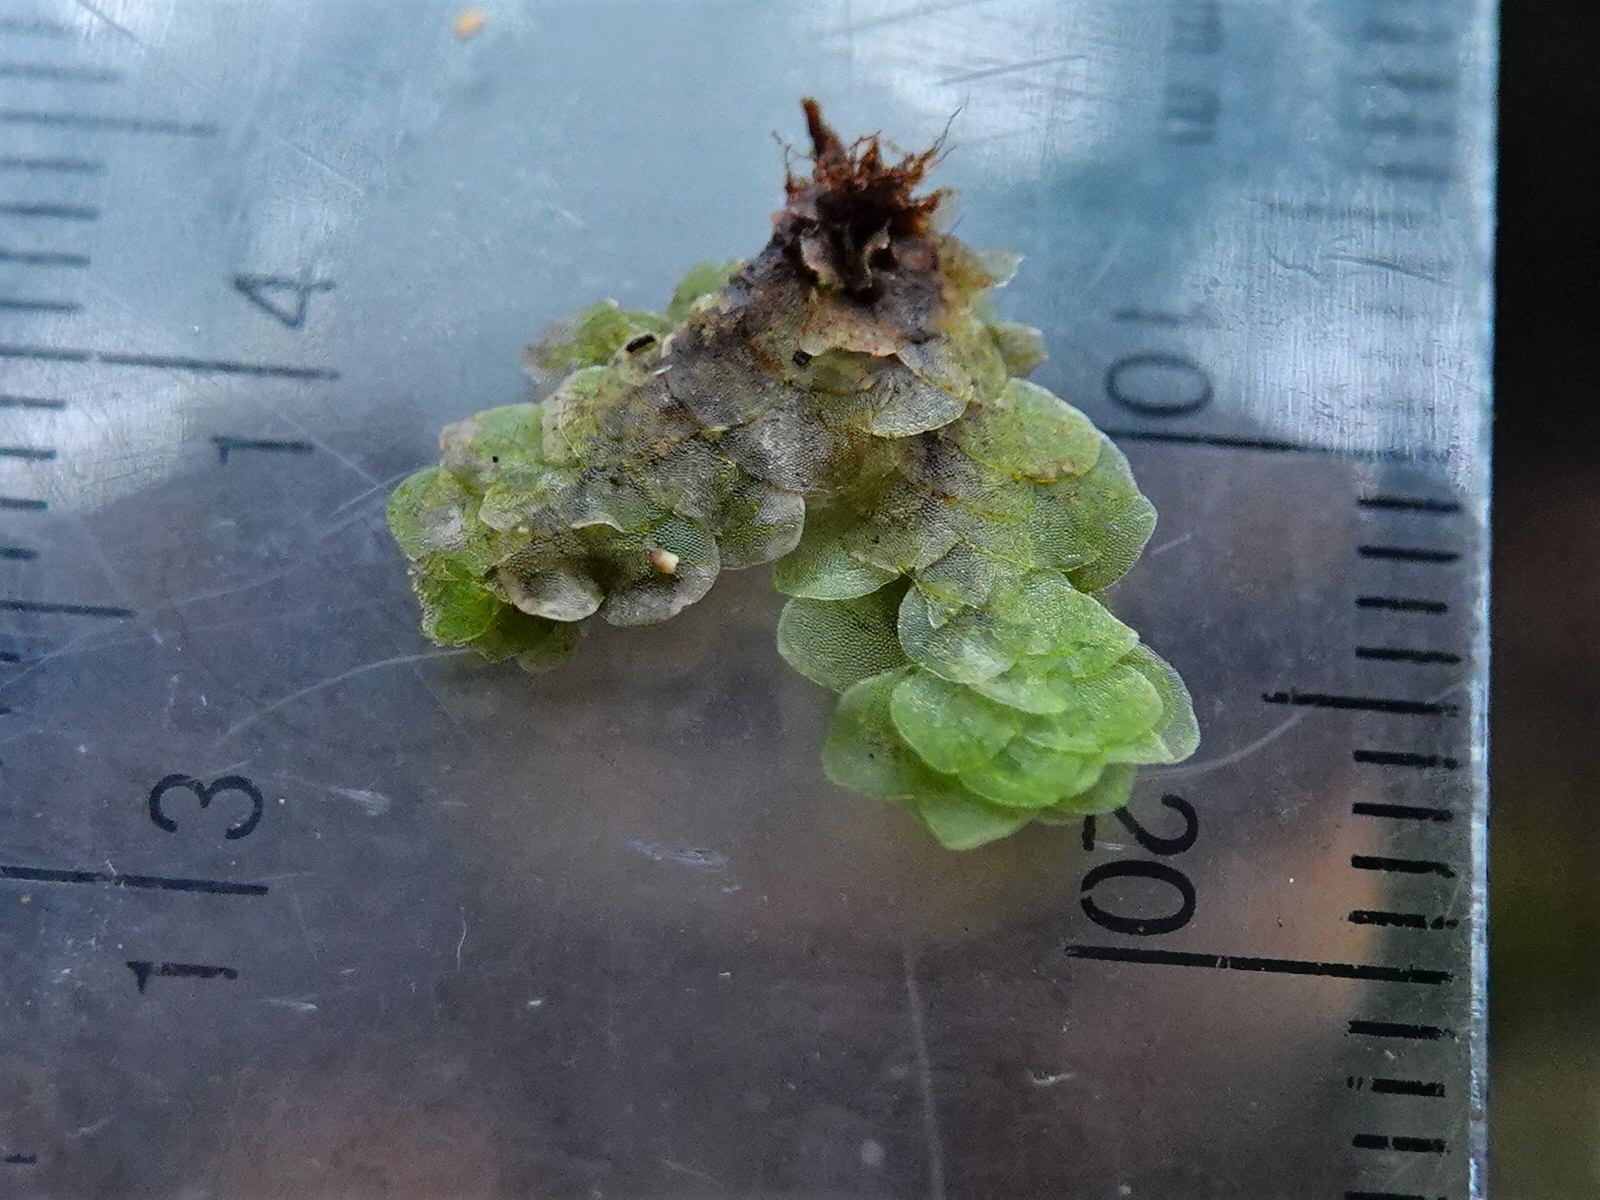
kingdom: Plantae
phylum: Bryophyta
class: Bryopsida
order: Hookeriales
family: Daltoniaceae
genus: Achrophyllum
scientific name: Achrophyllum quadrifarium
